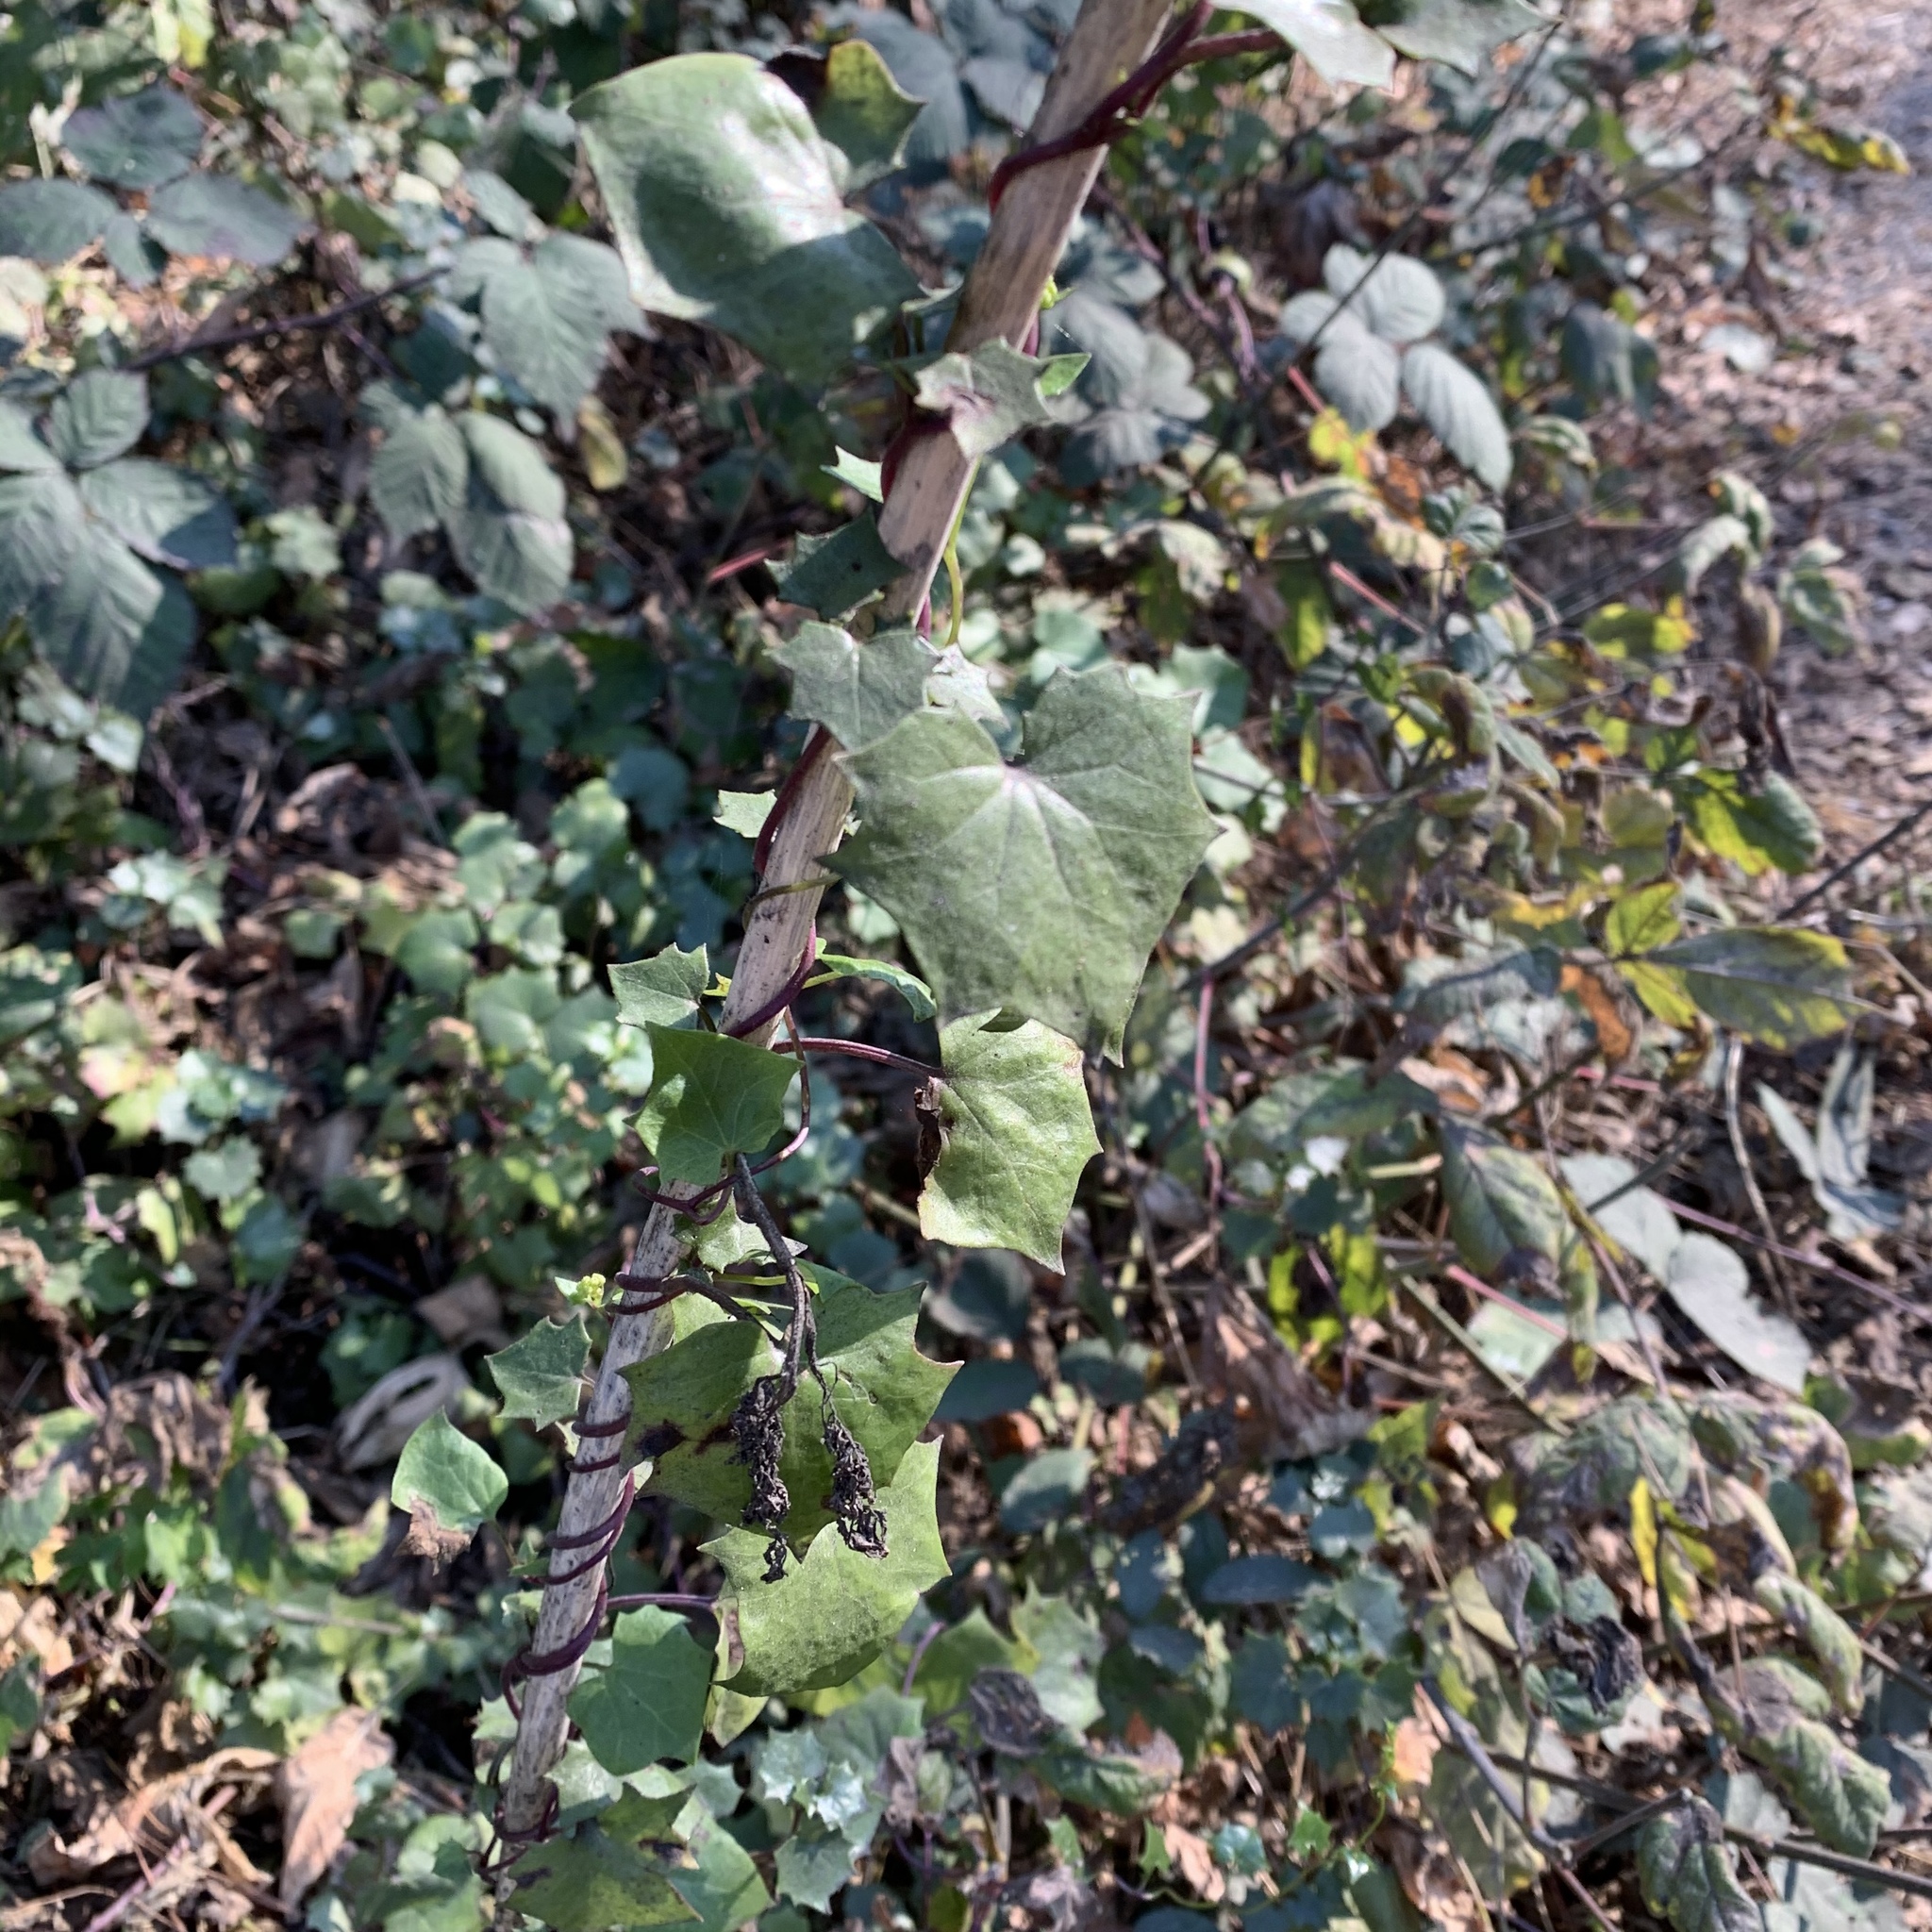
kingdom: Plantae
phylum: Tracheophyta
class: Magnoliopsida
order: Asterales
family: Asteraceae
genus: Delairea
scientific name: Delairea odorata
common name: Cape-ivy
